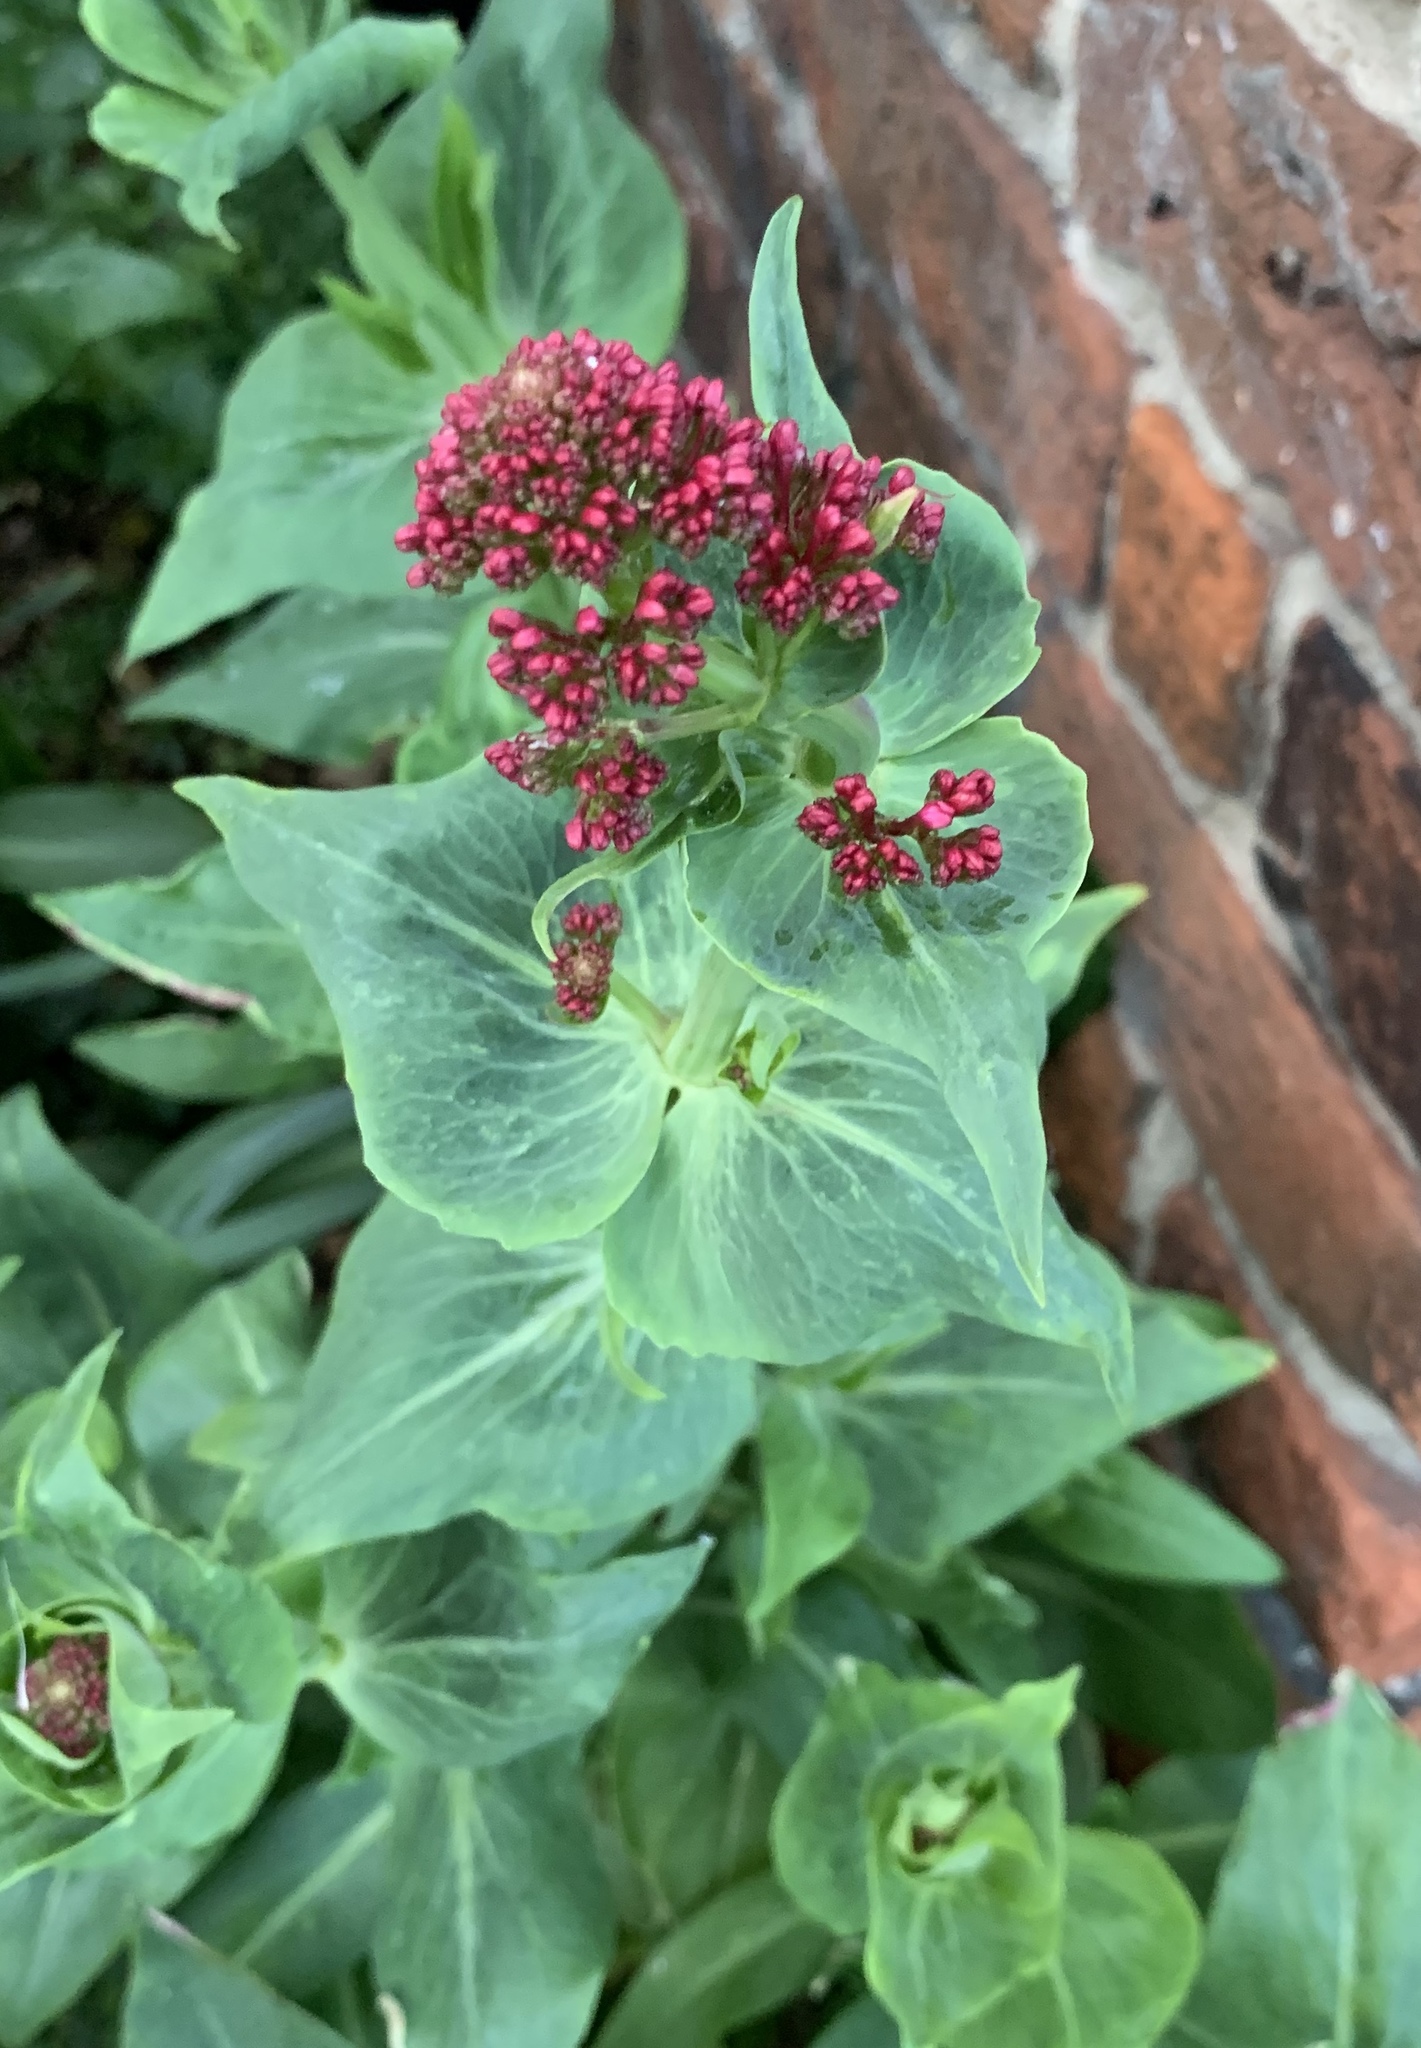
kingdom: Plantae
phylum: Tracheophyta
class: Magnoliopsida
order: Dipsacales
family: Caprifoliaceae
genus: Centranthus
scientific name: Centranthus ruber
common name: Red valerian
